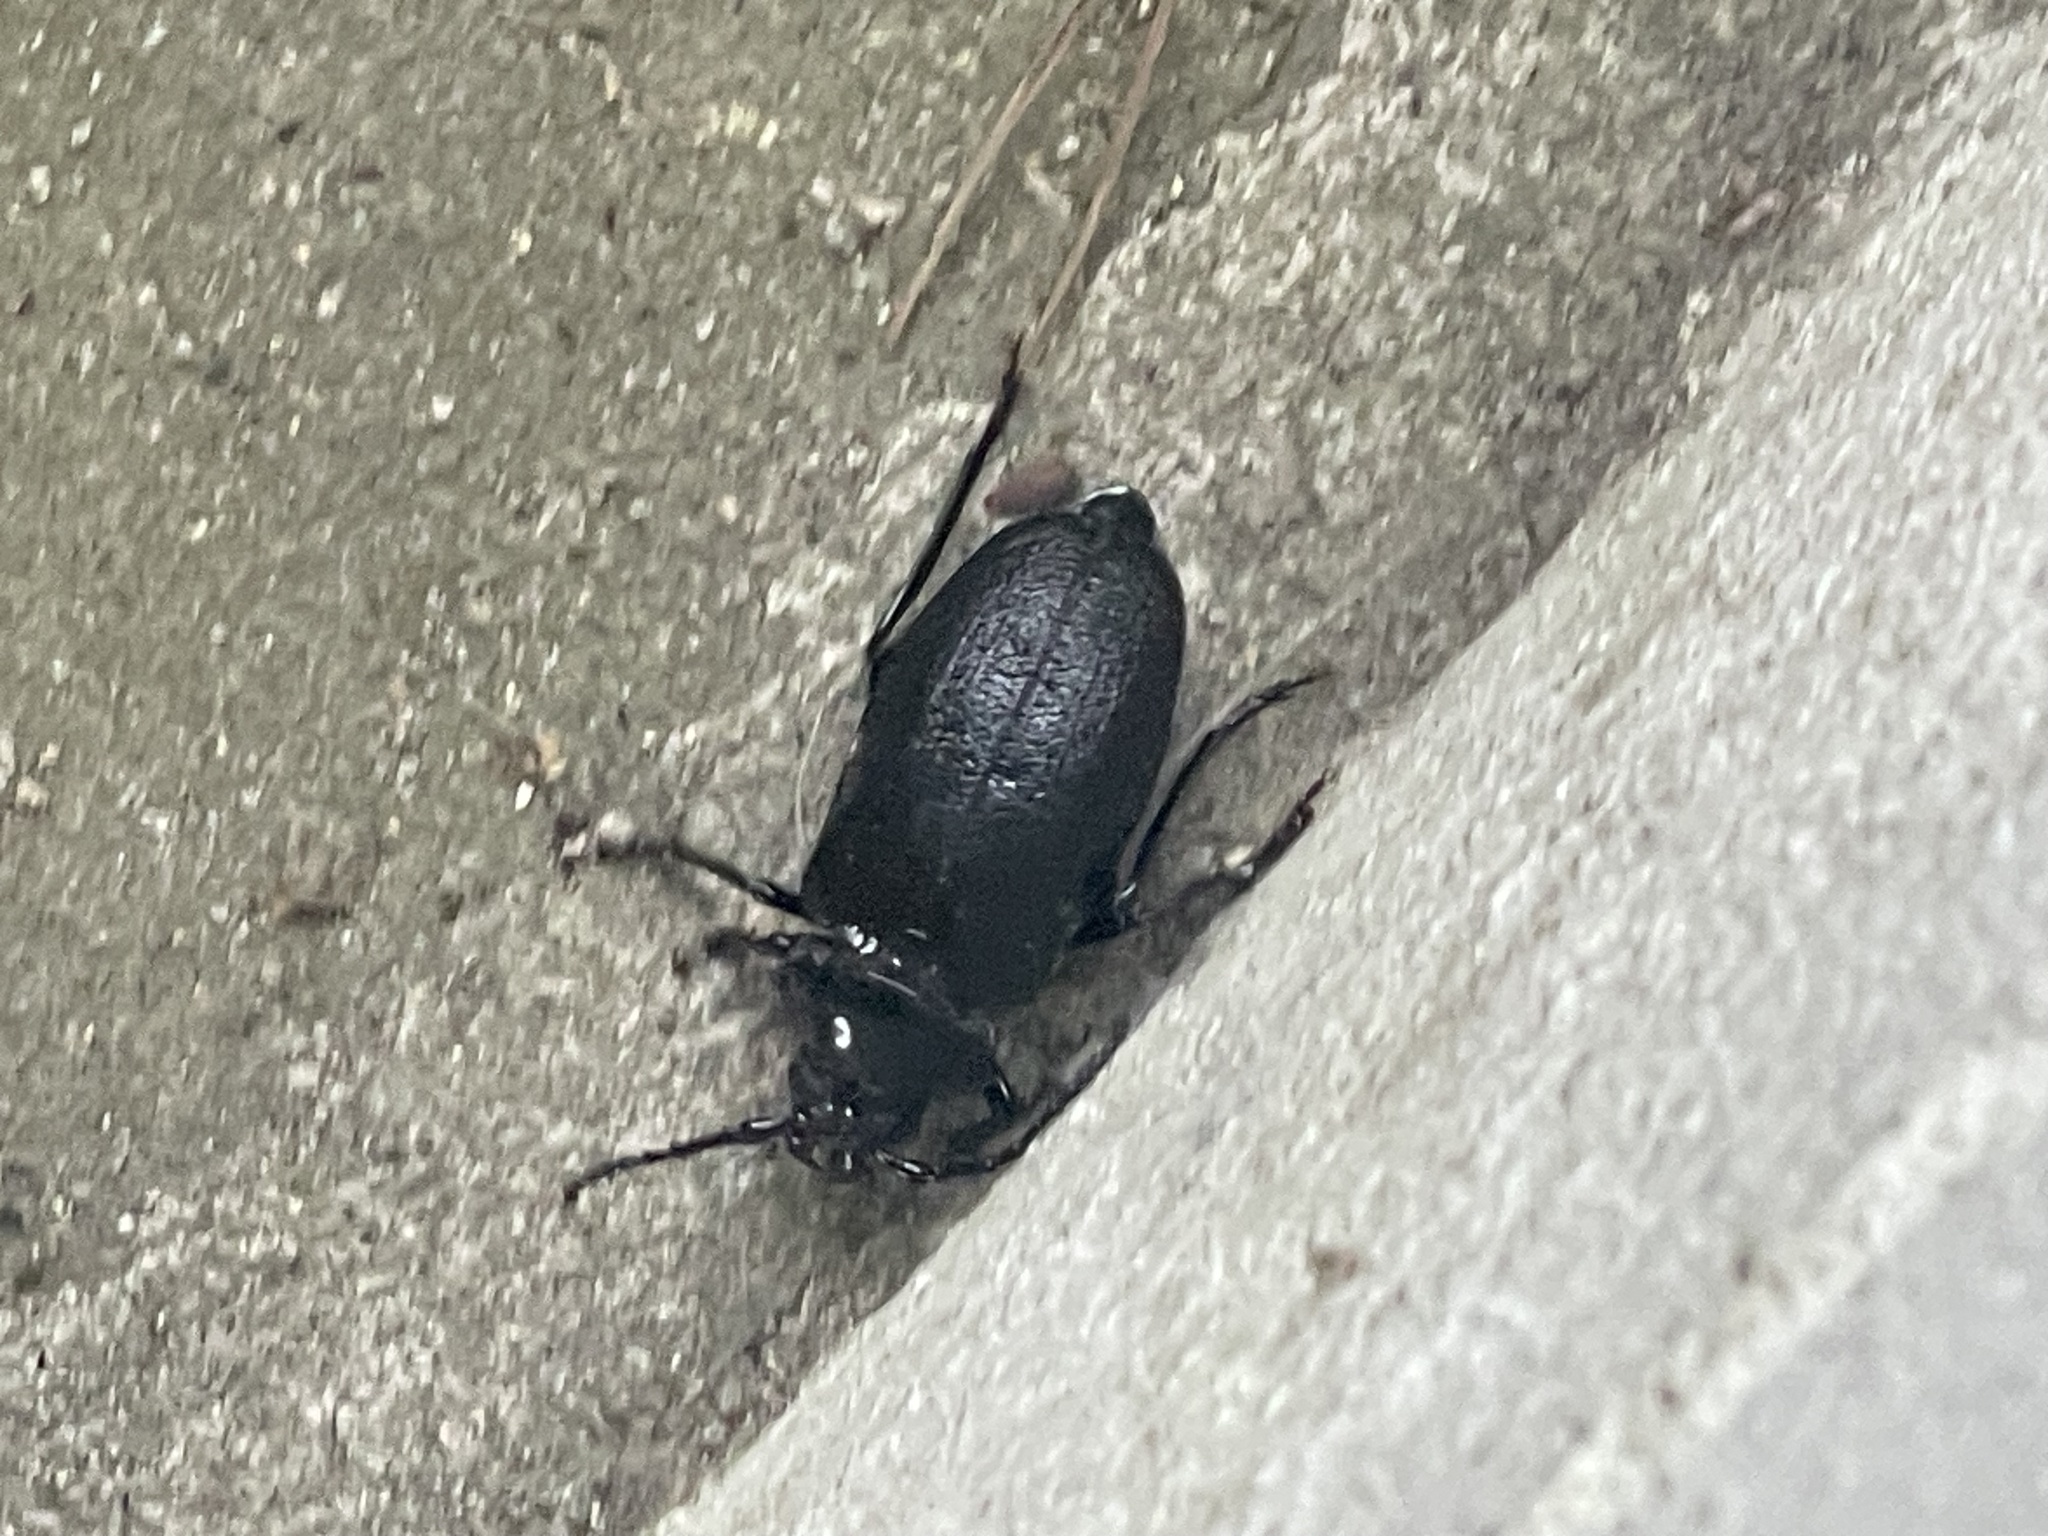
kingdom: Animalia
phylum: Arthropoda
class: Insecta
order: Coleoptera
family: Cerambycidae
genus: Prionus
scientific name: Prionus laticollis
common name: Broad necked prionus
